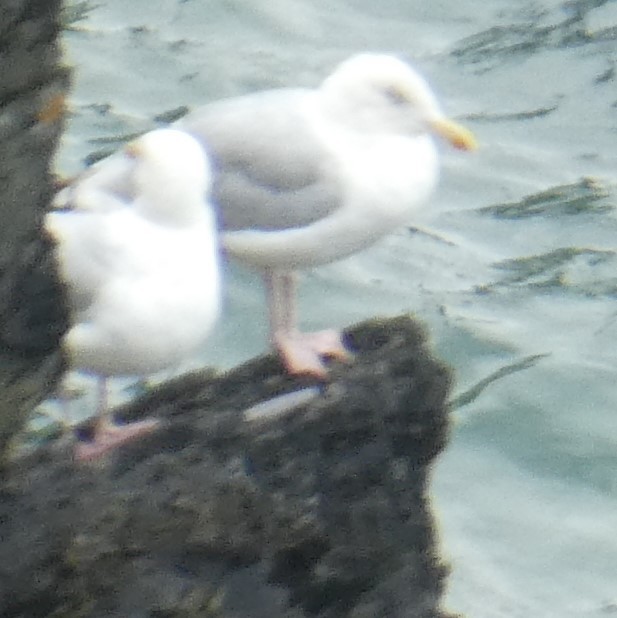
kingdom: Animalia
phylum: Chordata
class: Aves
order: Charadriiformes
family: Laridae
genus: Larus
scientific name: Larus argentatus
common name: Herring gull
